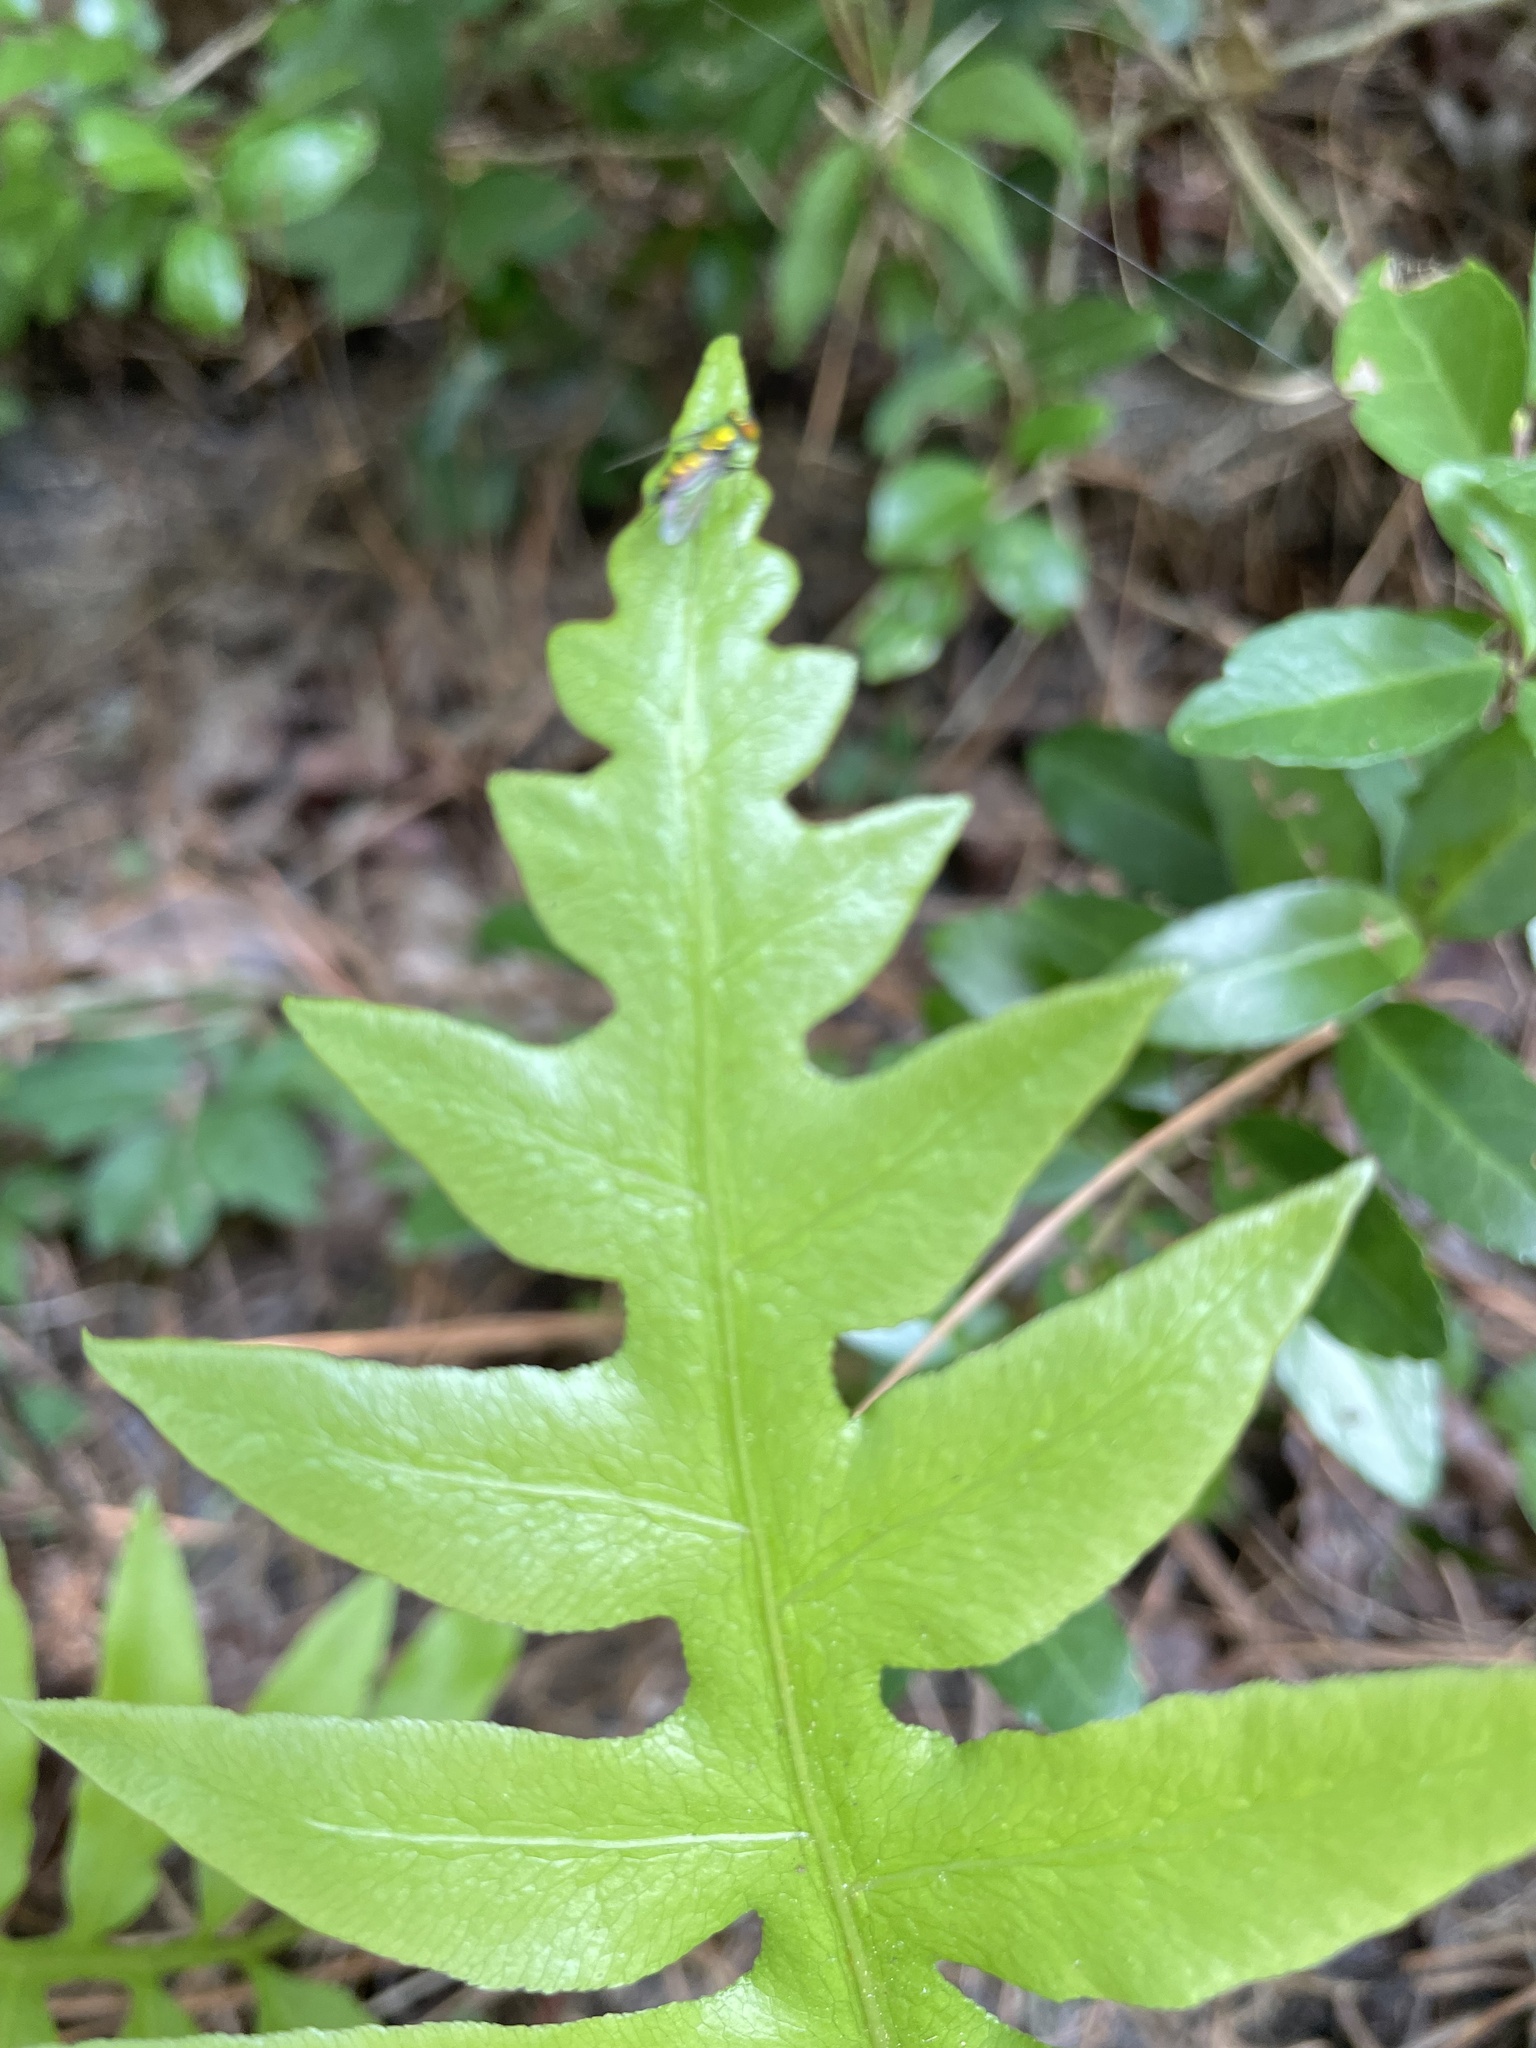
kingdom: Plantae
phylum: Tracheophyta
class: Polypodiopsida
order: Polypodiales
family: Blechnaceae
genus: Lorinseria
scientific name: Lorinseria areolata
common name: Dwarf chain fern
